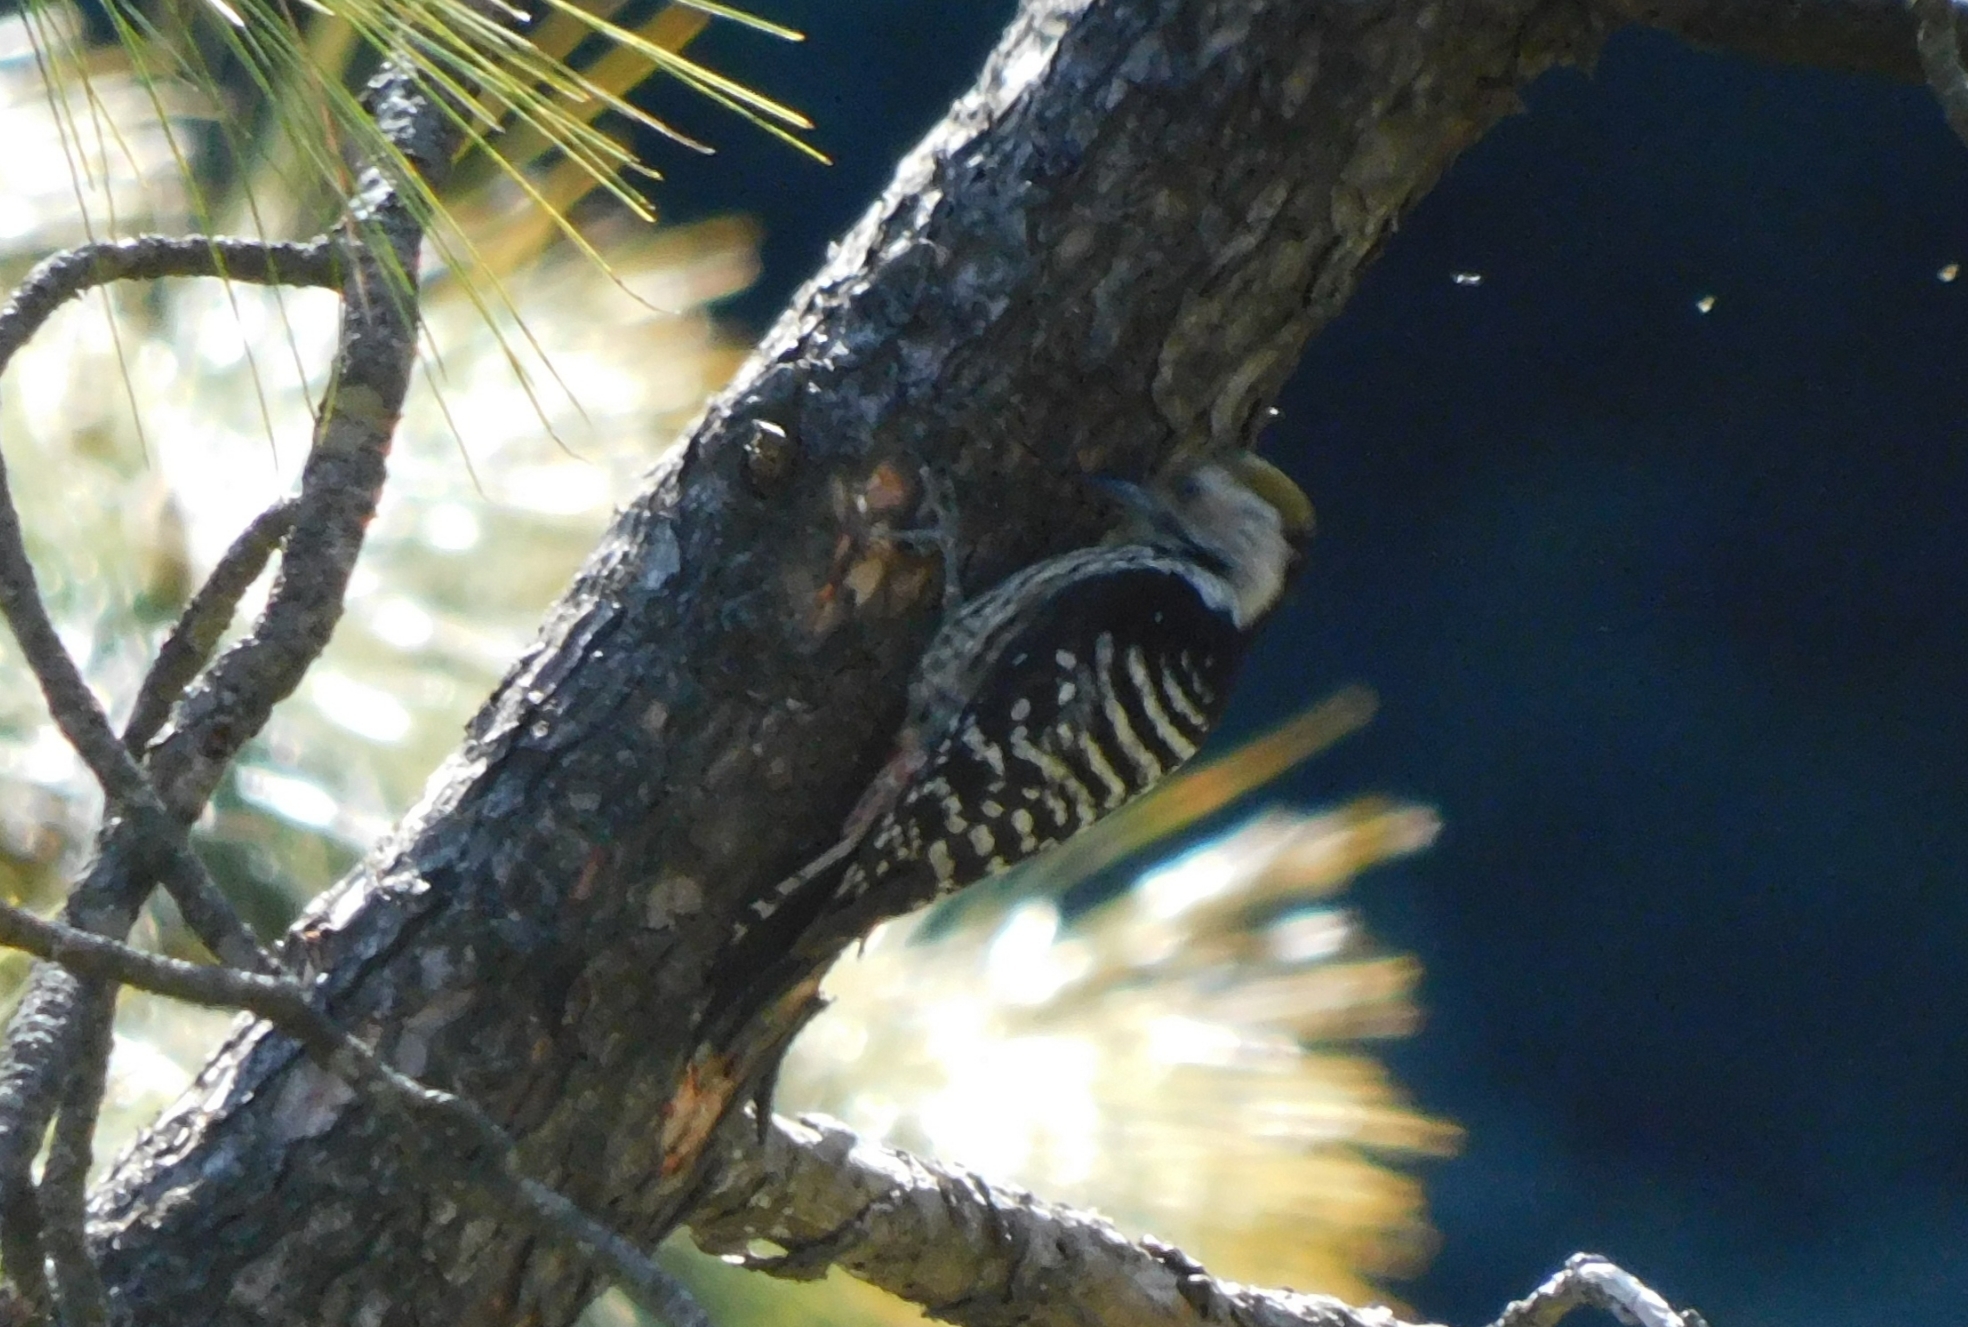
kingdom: Animalia
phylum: Chordata
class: Aves
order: Piciformes
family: Picidae
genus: Dendrocoptes
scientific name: Dendrocoptes auriceps
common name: Brown-fronted woodpecker
